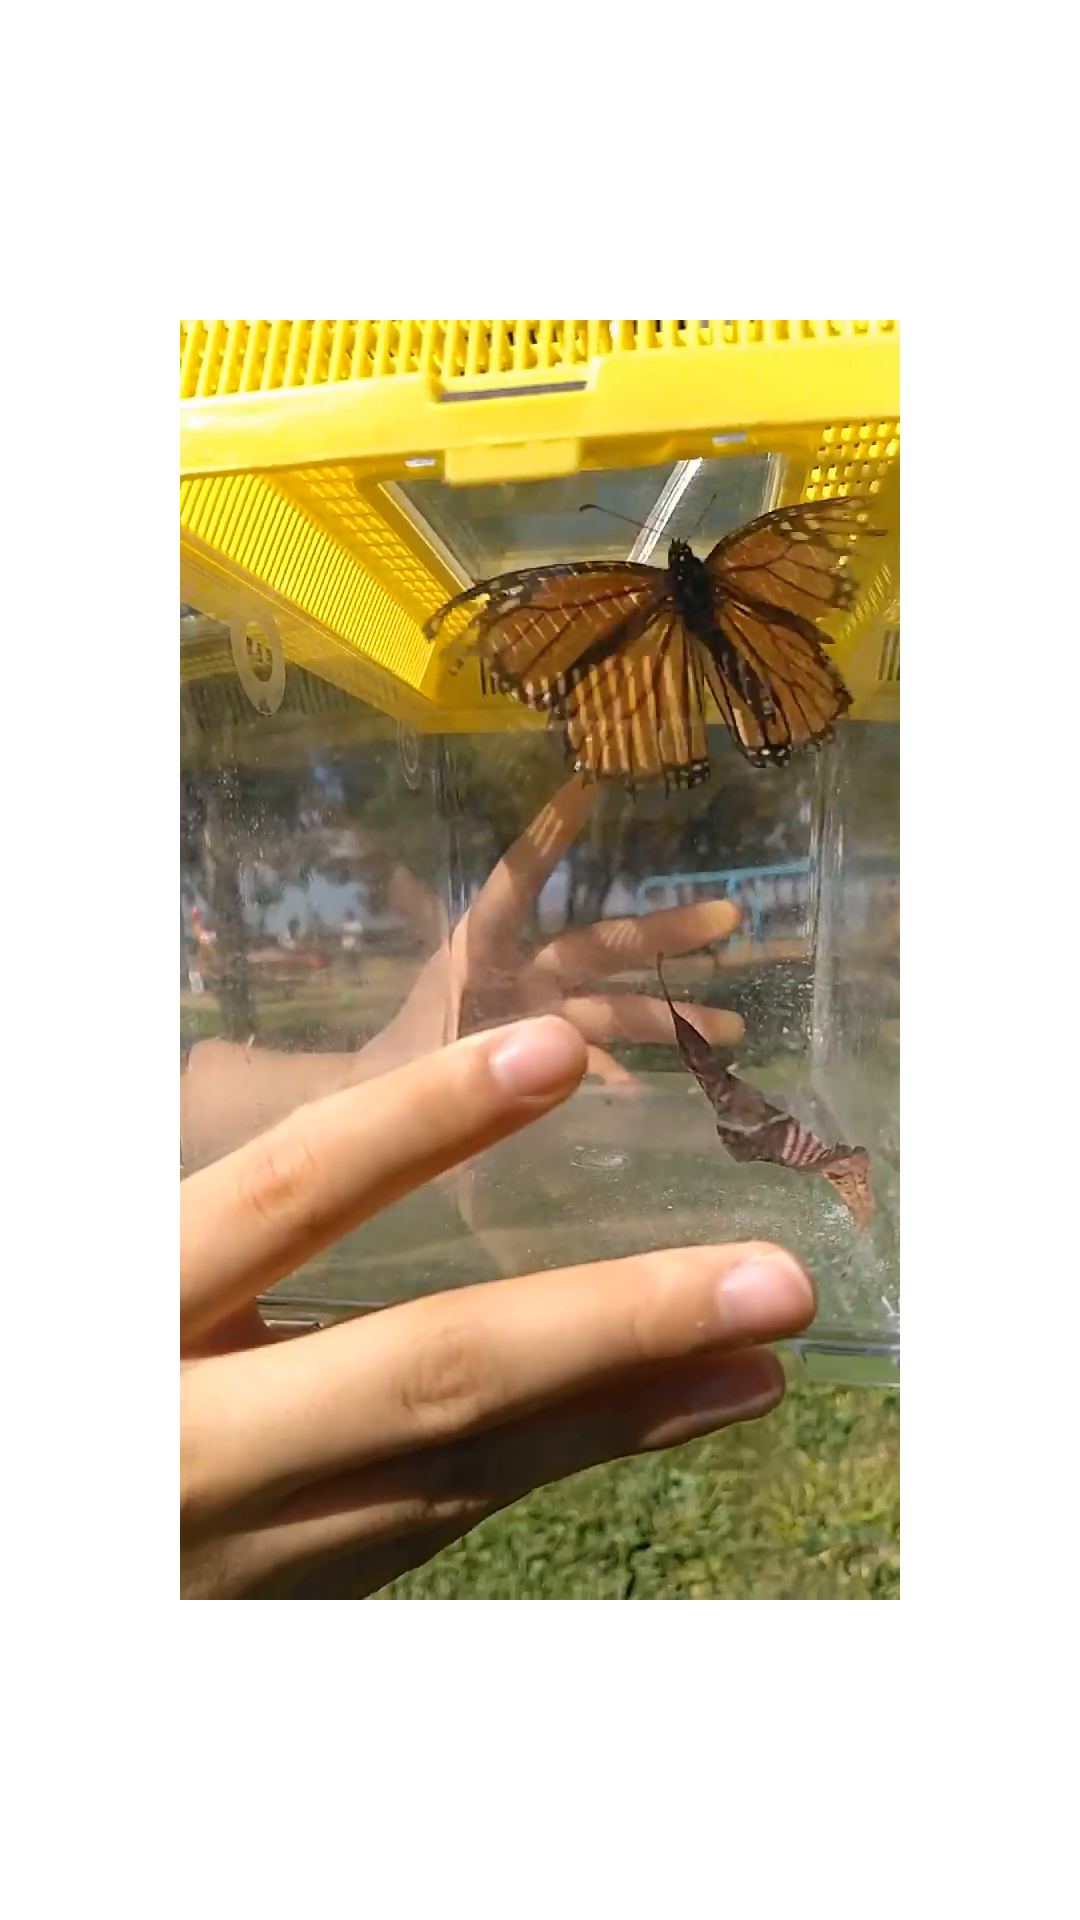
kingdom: Animalia
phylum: Arthropoda
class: Insecta
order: Lepidoptera
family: Nymphalidae
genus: Danaus
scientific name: Danaus plexippus
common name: Monarch
